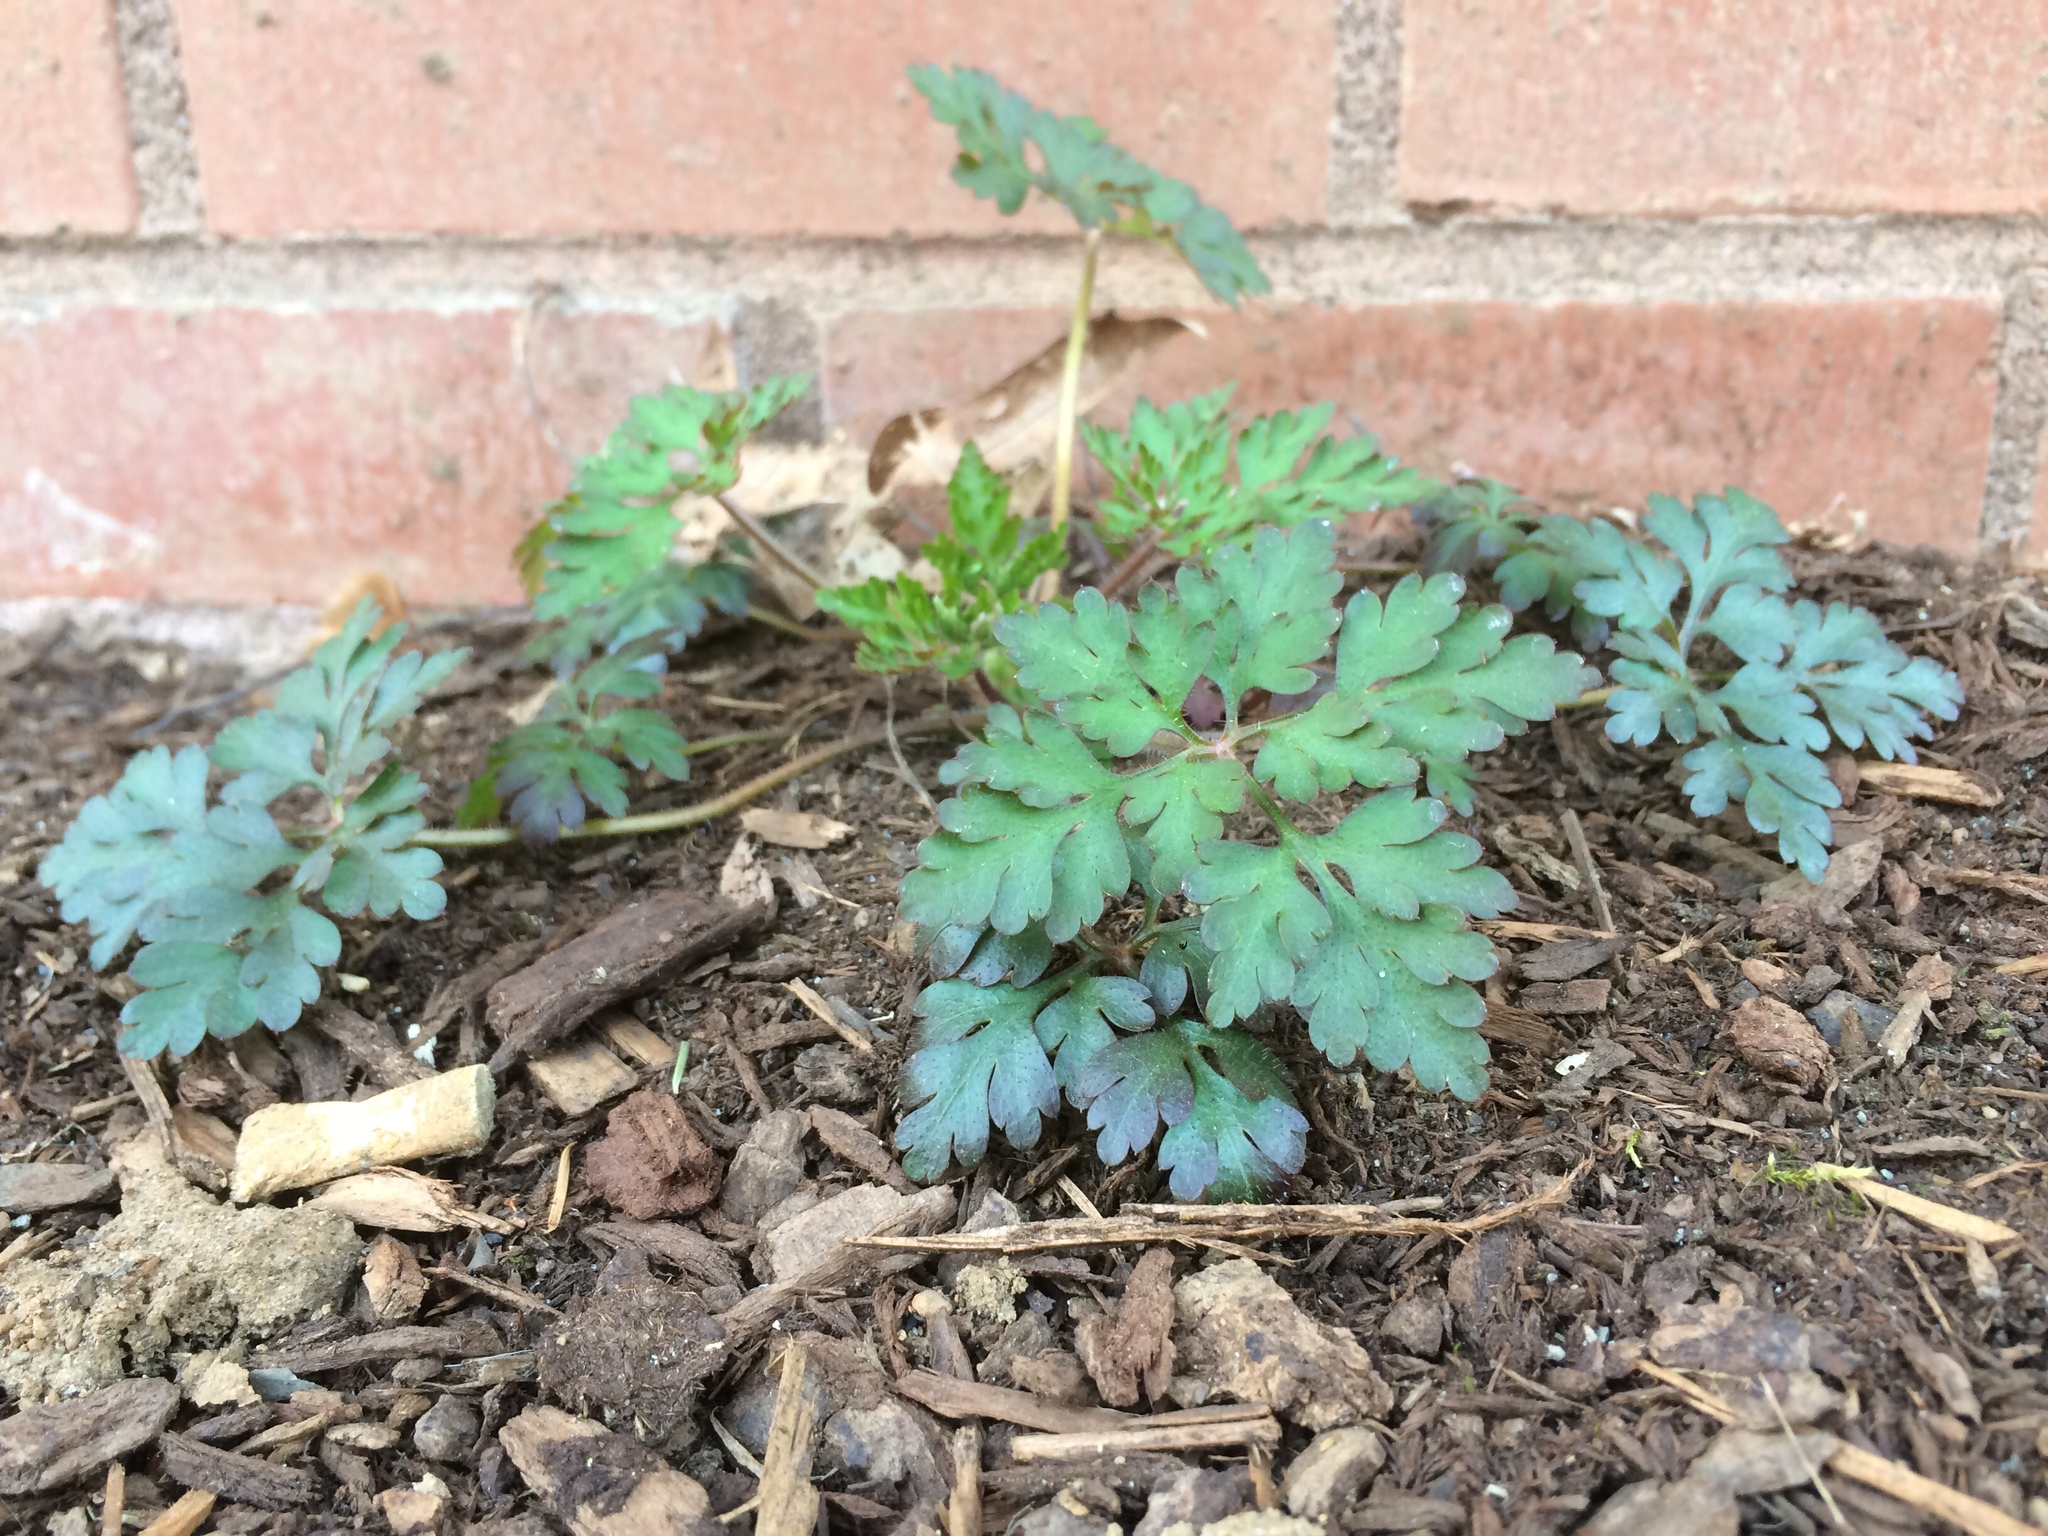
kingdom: Plantae
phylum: Tracheophyta
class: Magnoliopsida
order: Geraniales
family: Geraniaceae
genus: Geranium
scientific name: Geranium robertianum
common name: Herb-robert
